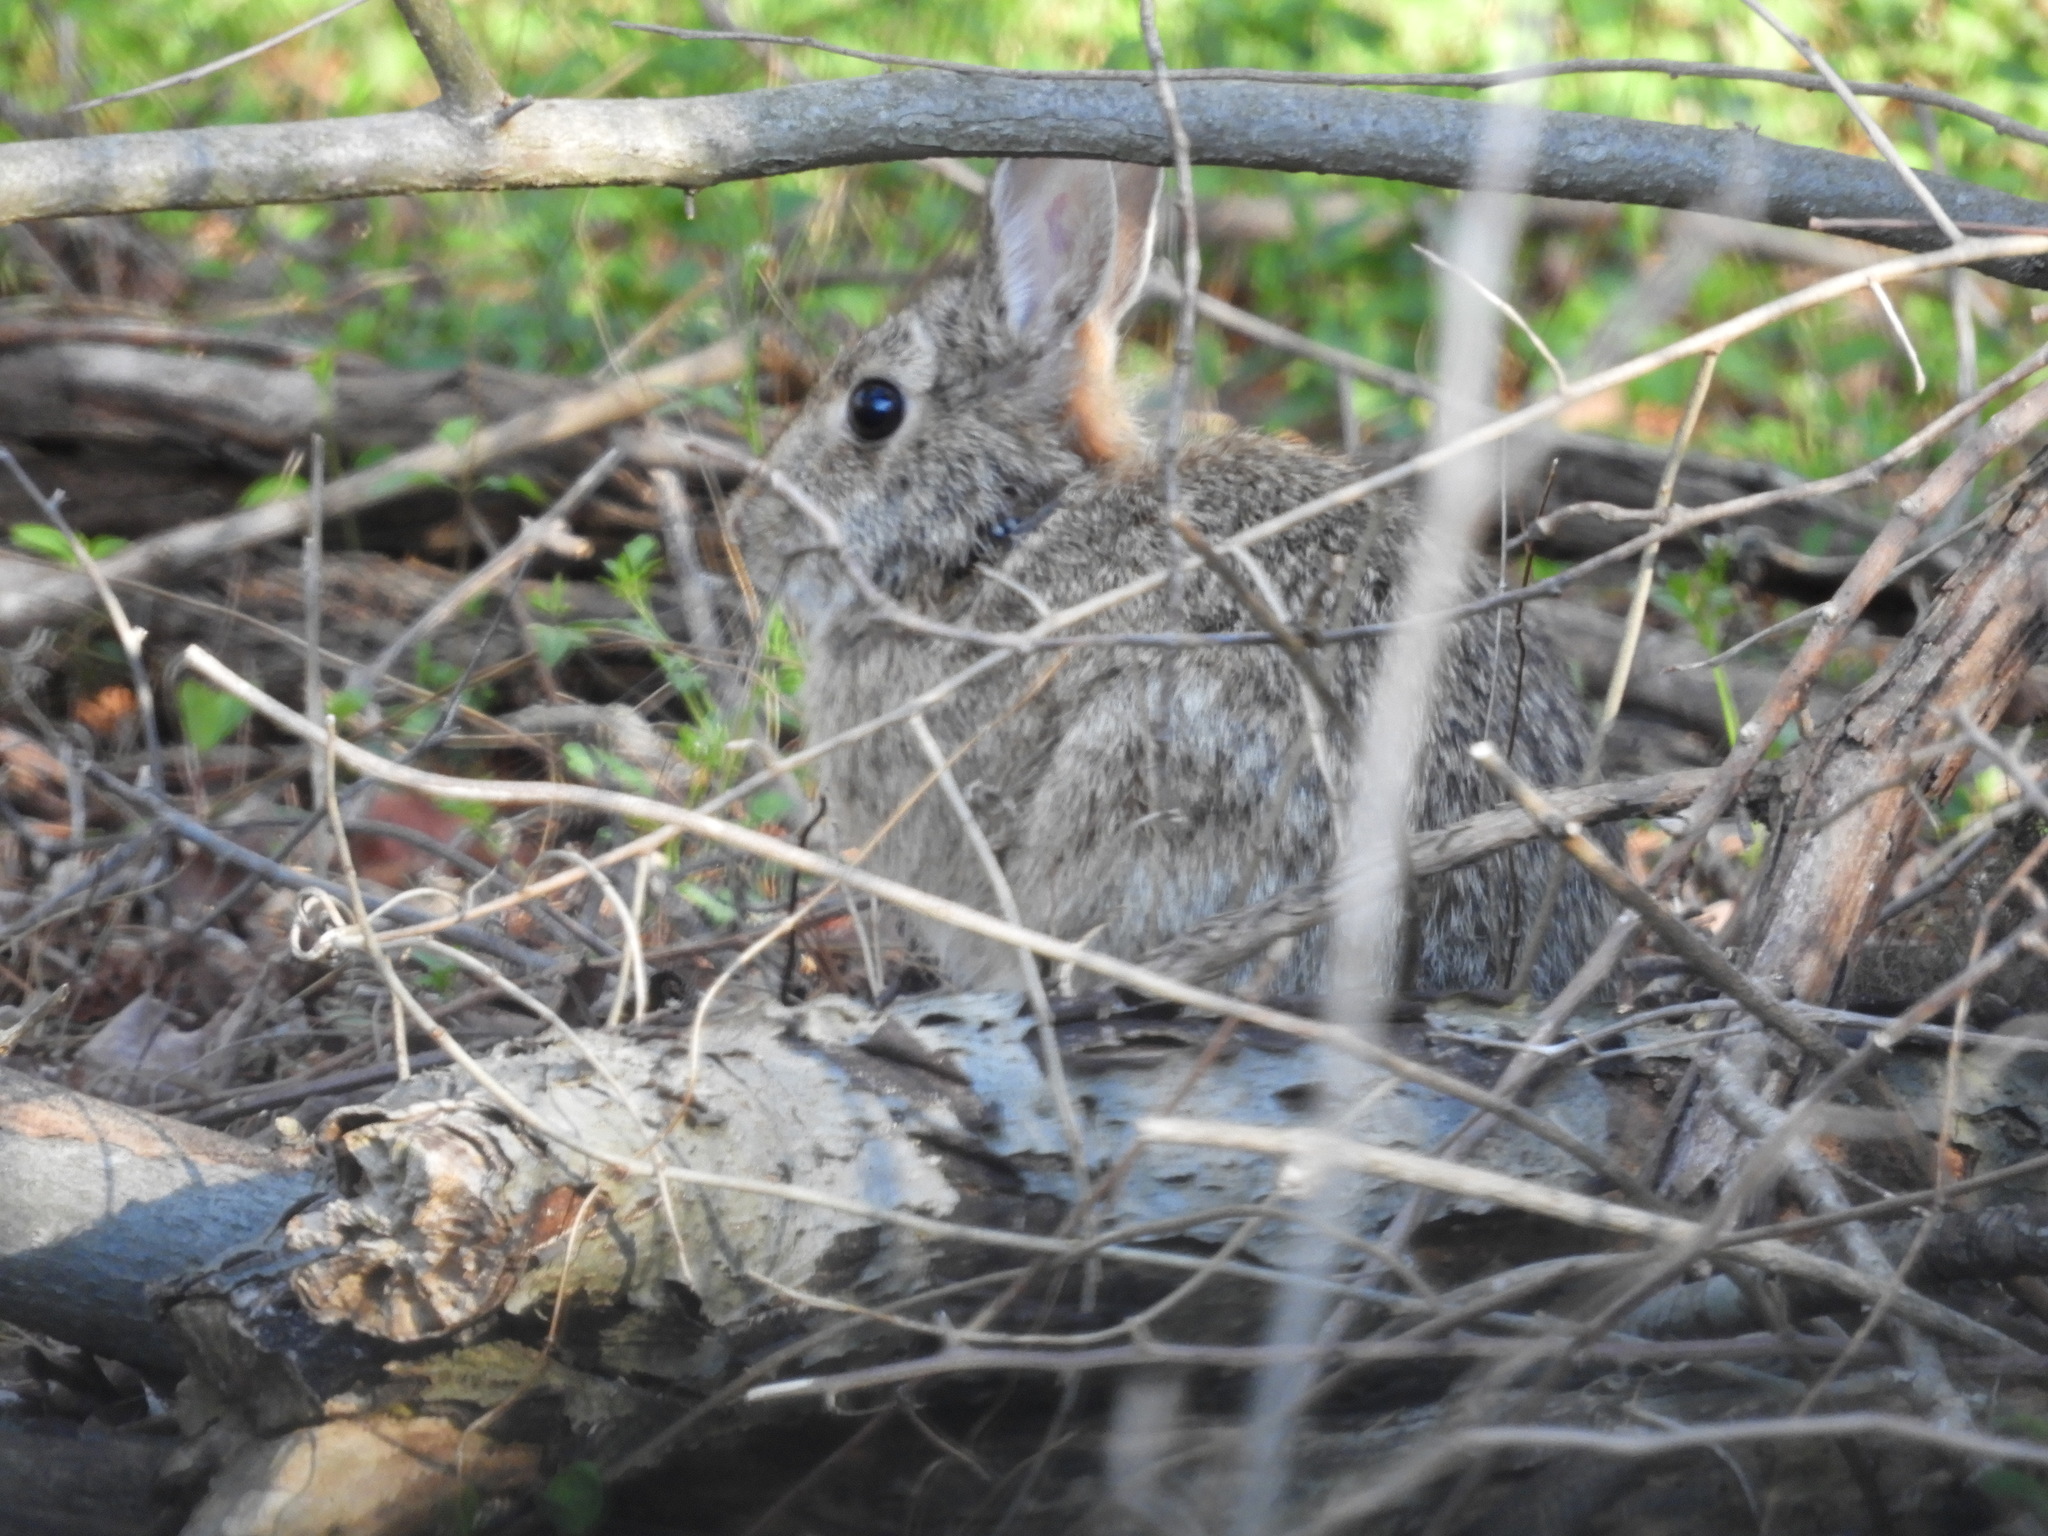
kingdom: Animalia
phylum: Chordata
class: Mammalia
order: Lagomorpha
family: Leporidae
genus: Sylvilagus
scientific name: Sylvilagus floridanus
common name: Eastern cottontail
